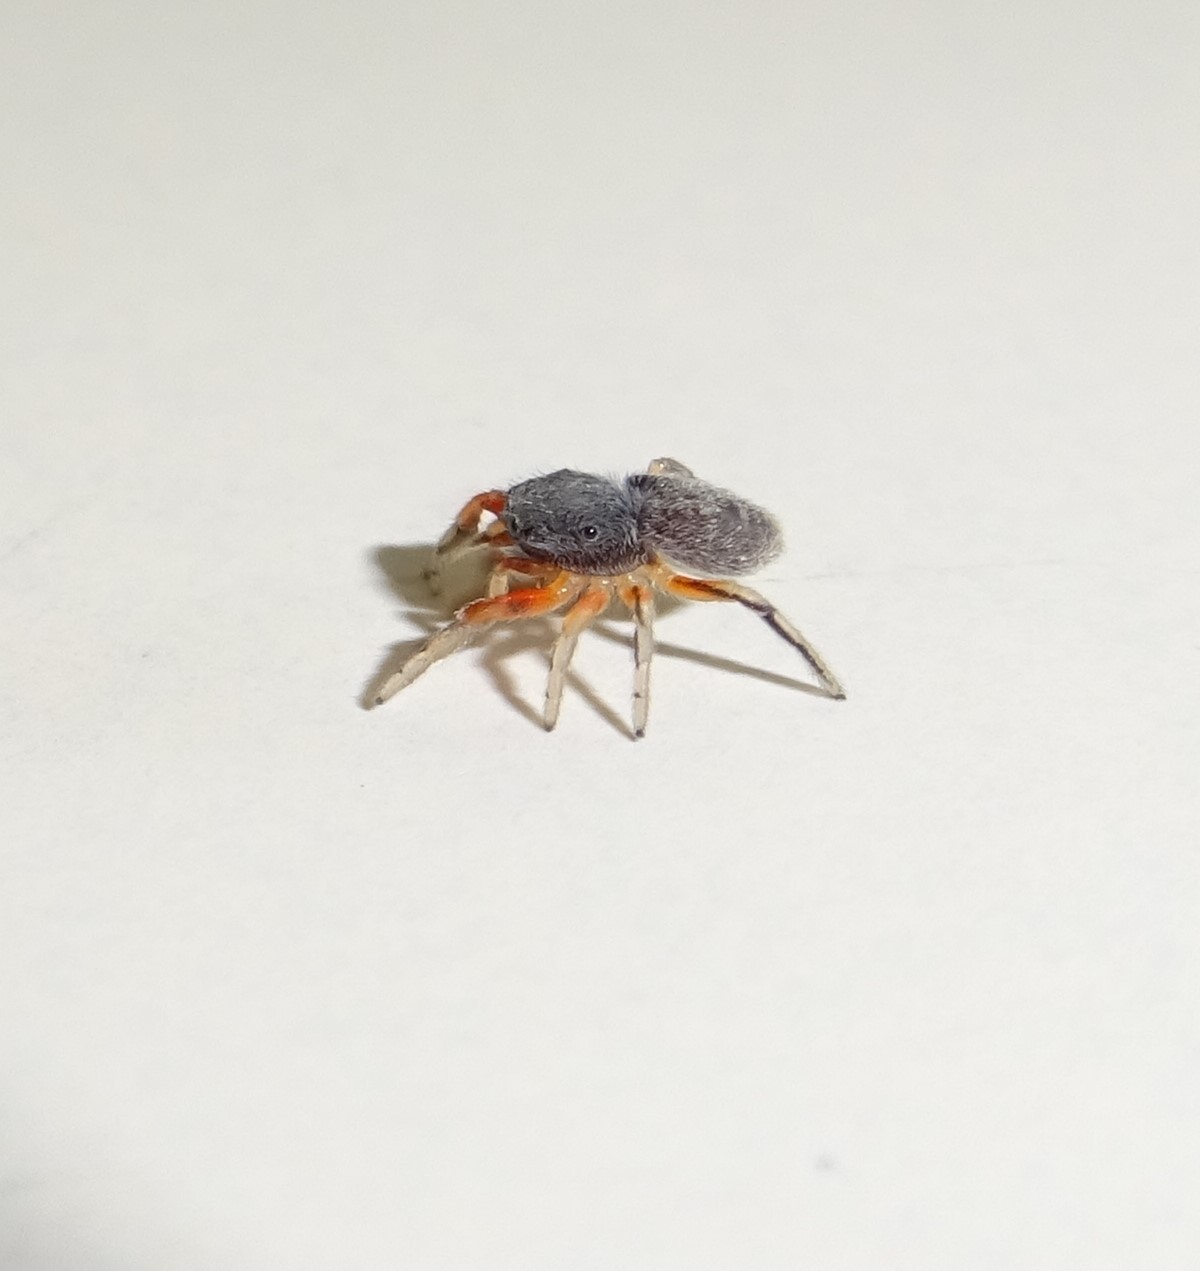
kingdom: Animalia
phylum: Arthropoda
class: Arachnida
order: Araneae
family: Salticidae
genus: Ballus
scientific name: Ballus rufipes
